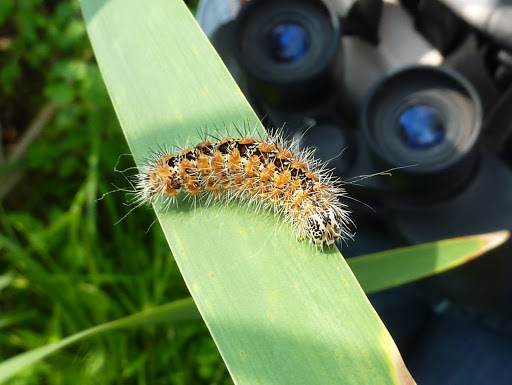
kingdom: Animalia
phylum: Arthropoda
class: Insecta
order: Lepidoptera
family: Noctuidae
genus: Acronicta
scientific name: Acronicta insularis
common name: Henry's marsh moth
